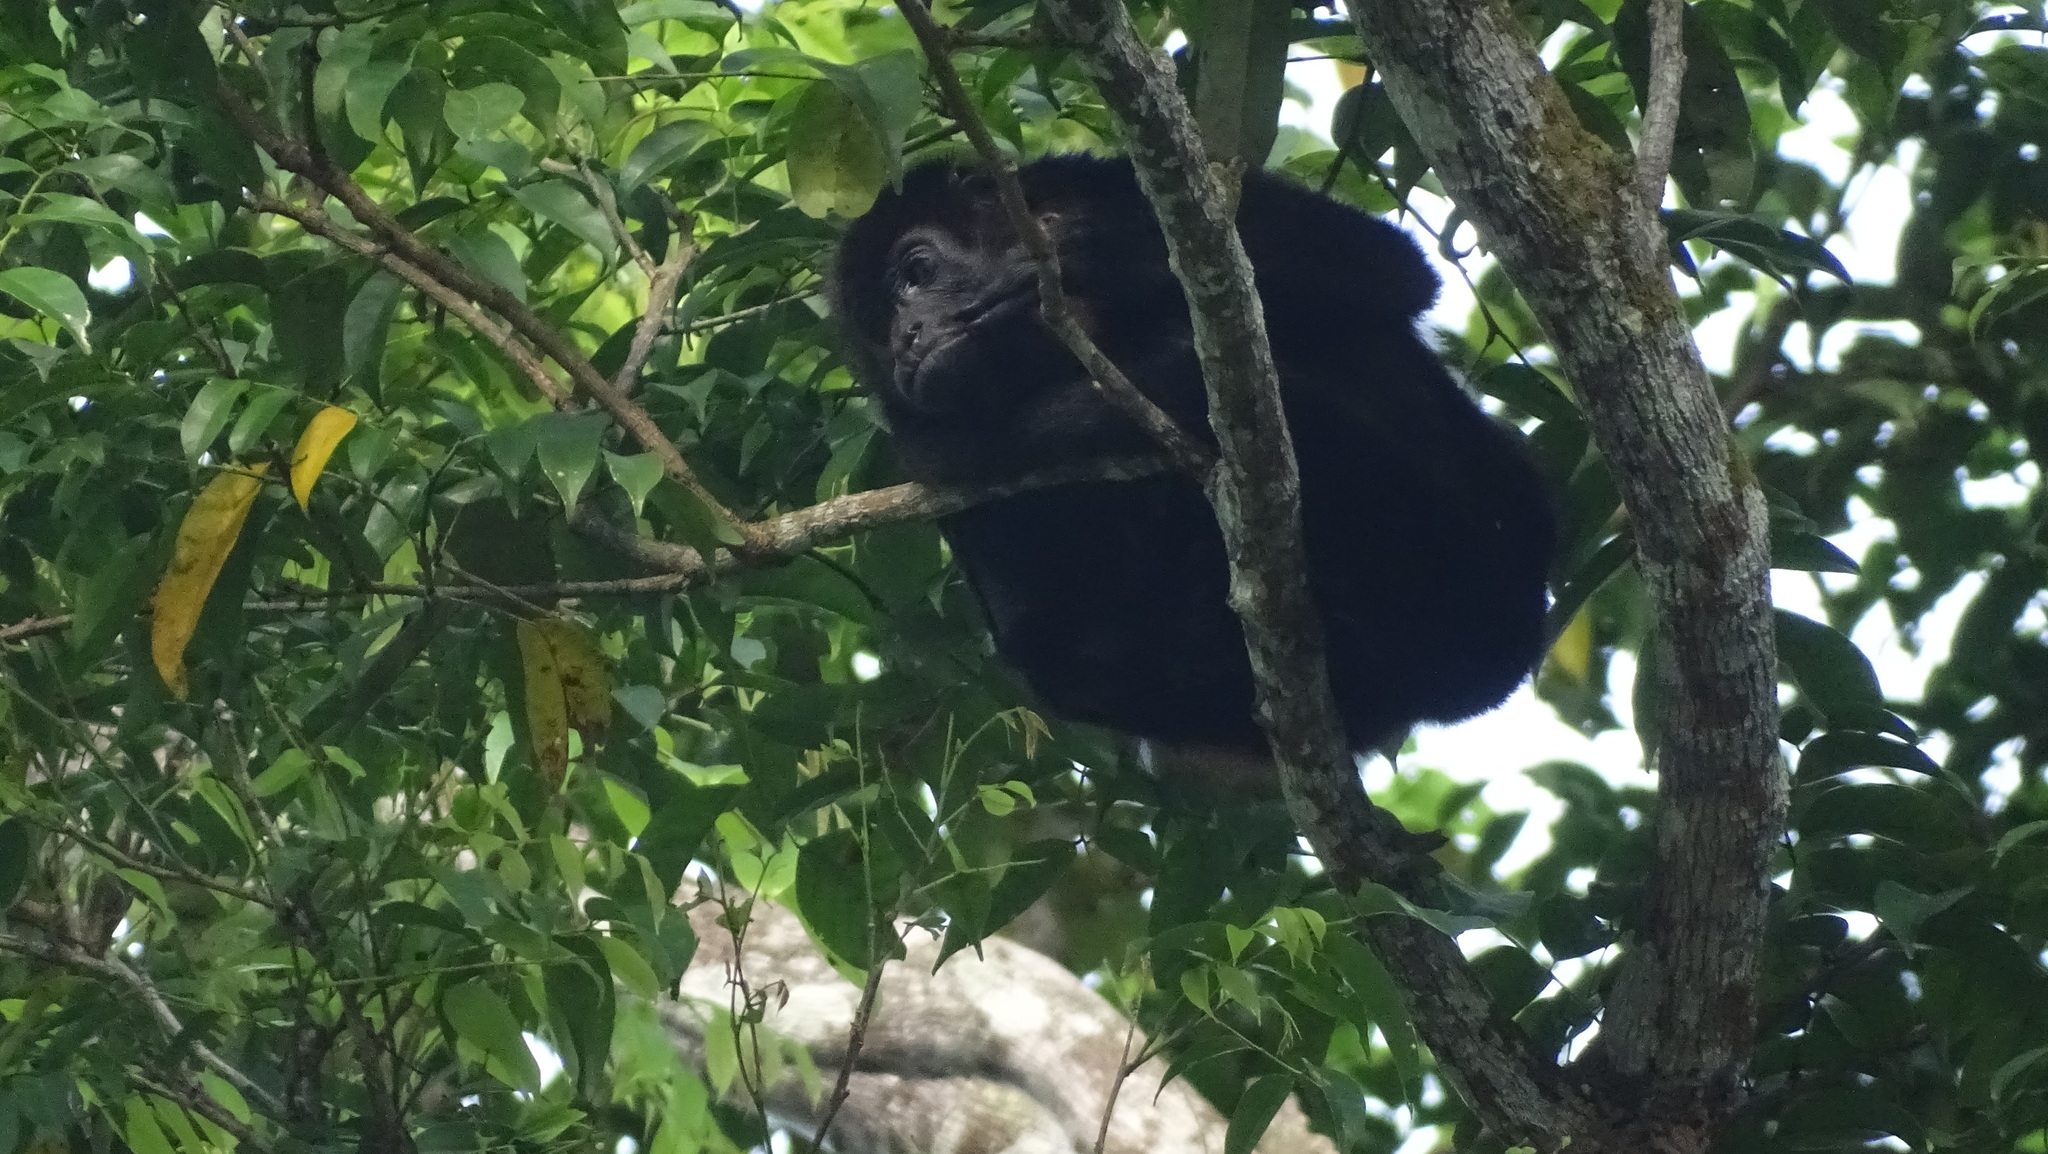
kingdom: Animalia
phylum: Chordata
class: Mammalia
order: Primates
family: Atelidae
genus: Alouatta
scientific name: Alouatta palliata
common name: Mantled howler
